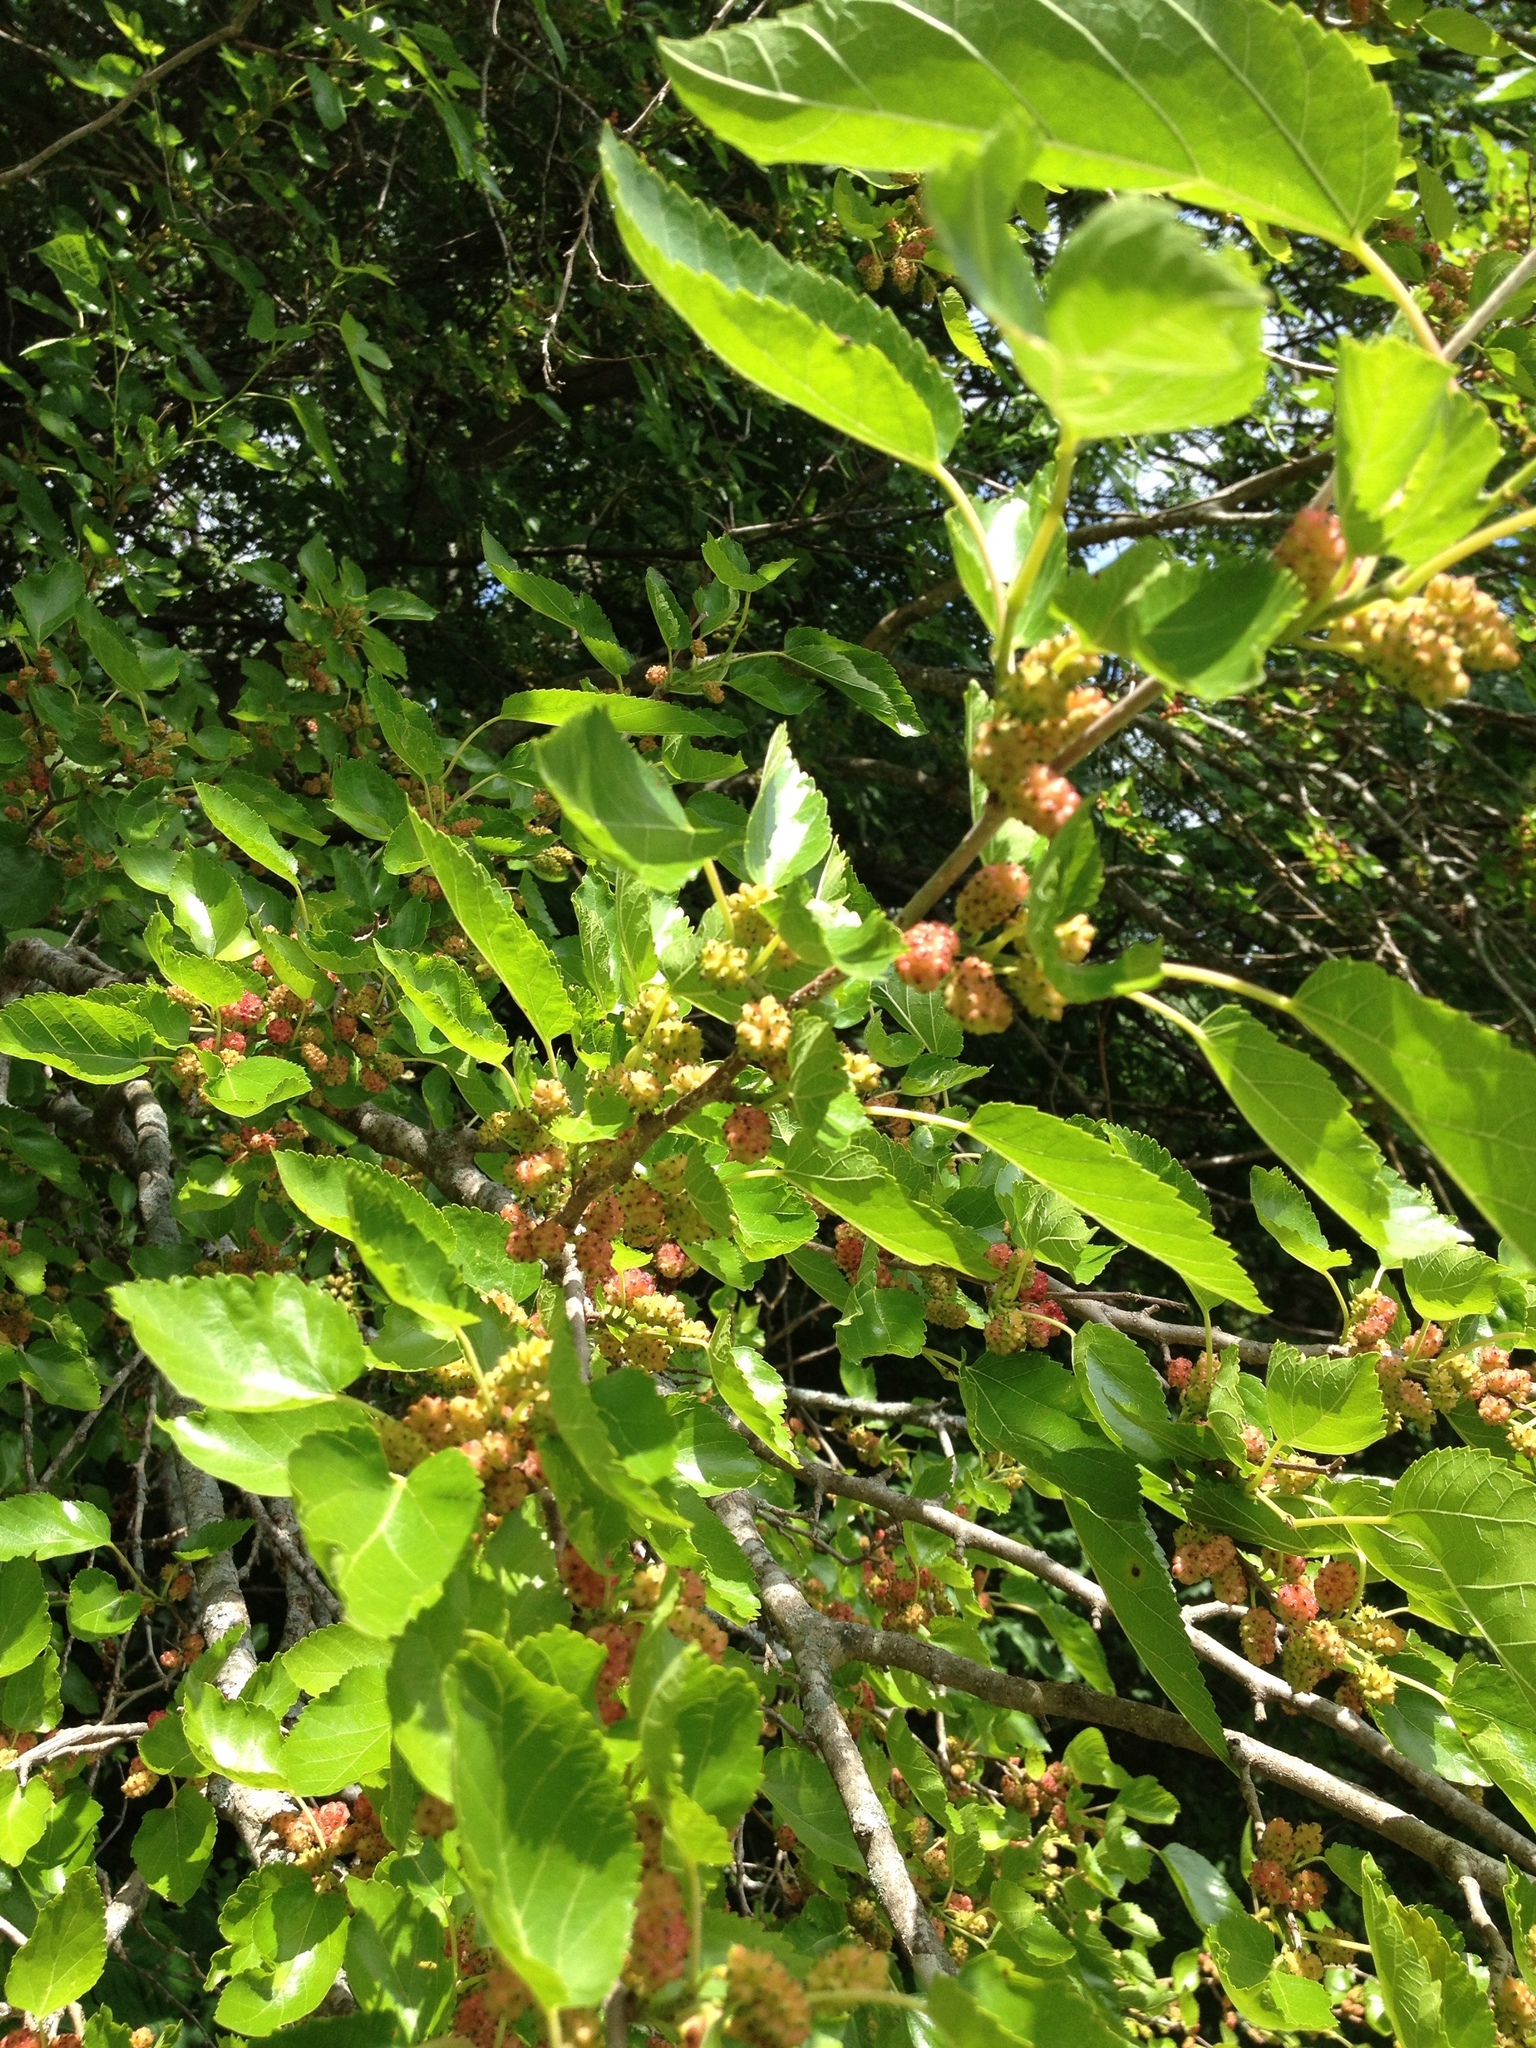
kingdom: Plantae
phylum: Tracheophyta
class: Magnoliopsida
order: Rosales
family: Moraceae
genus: Morus
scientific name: Morus alba
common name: White mulberry
